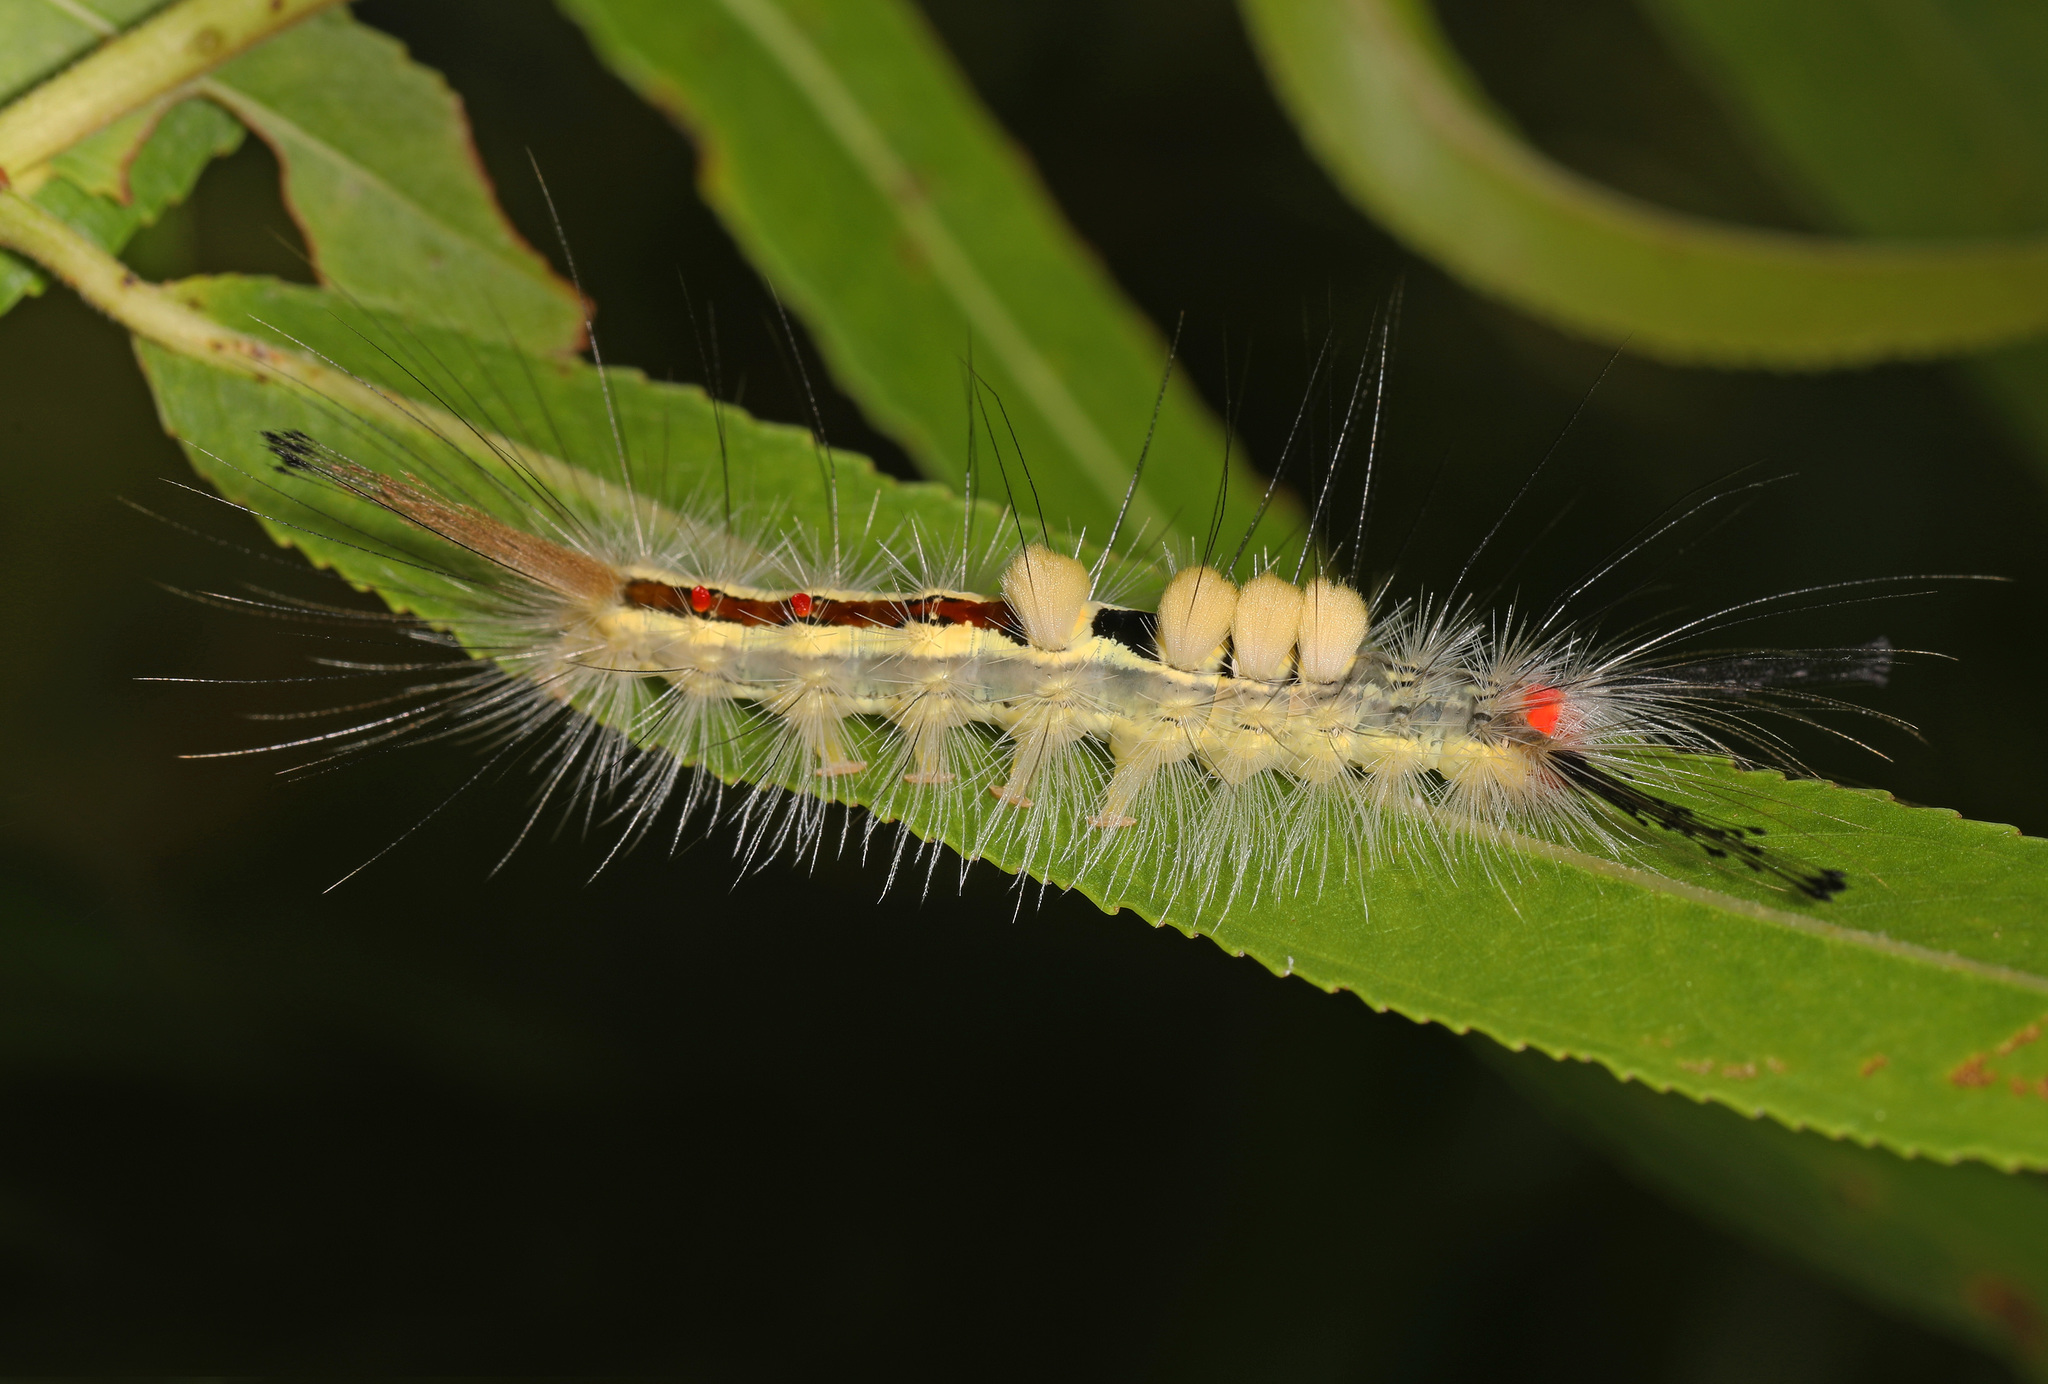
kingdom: Animalia
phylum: Arthropoda
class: Insecta
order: Lepidoptera
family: Erebidae
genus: Orgyia
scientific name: Orgyia leucostigma
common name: White-marked tussock moth
